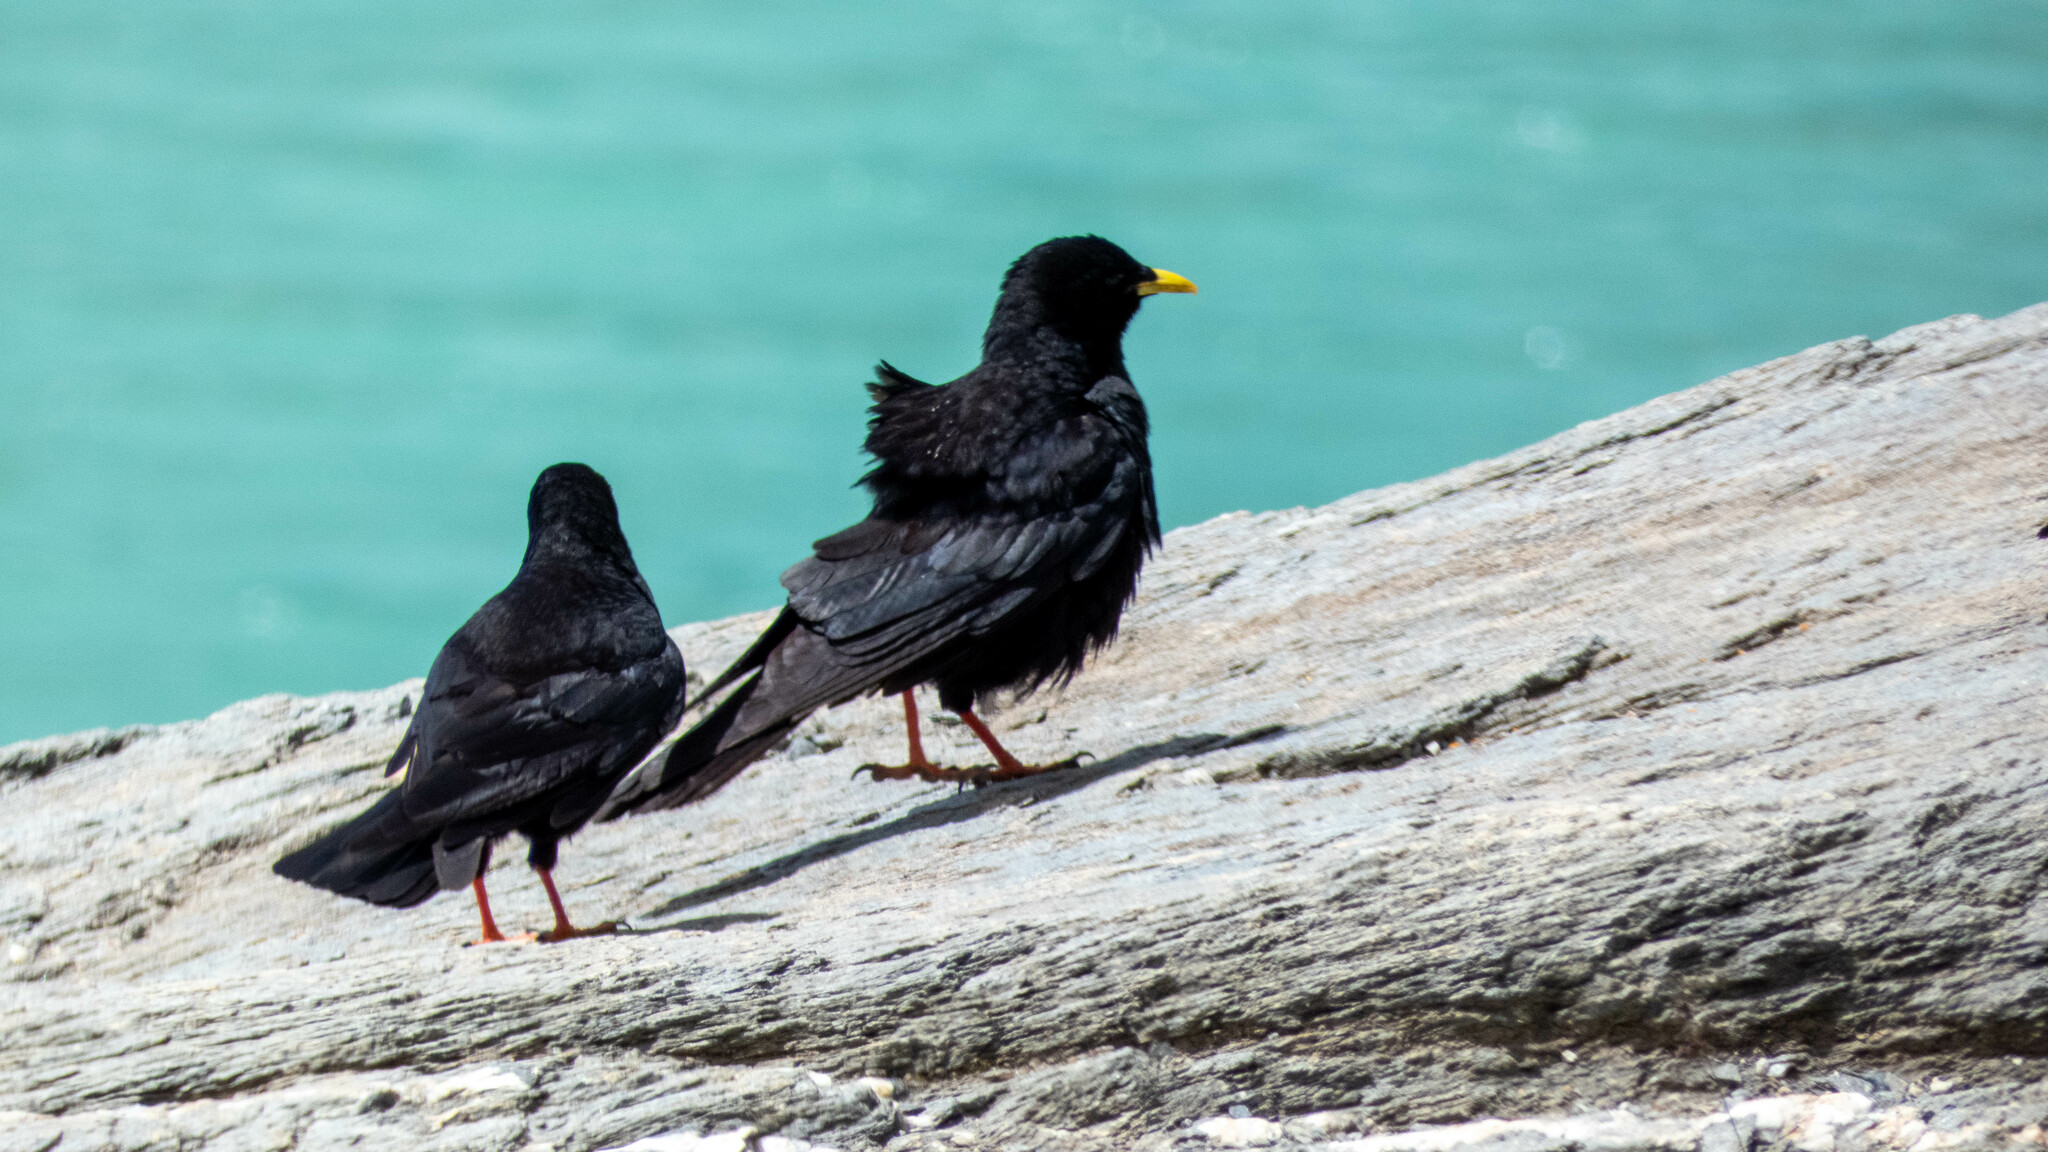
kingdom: Animalia
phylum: Chordata
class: Aves
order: Passeriformes
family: Corvidae
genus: Pyrrhocorax
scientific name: Pyrrhocorax graculus
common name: Alpine chough
